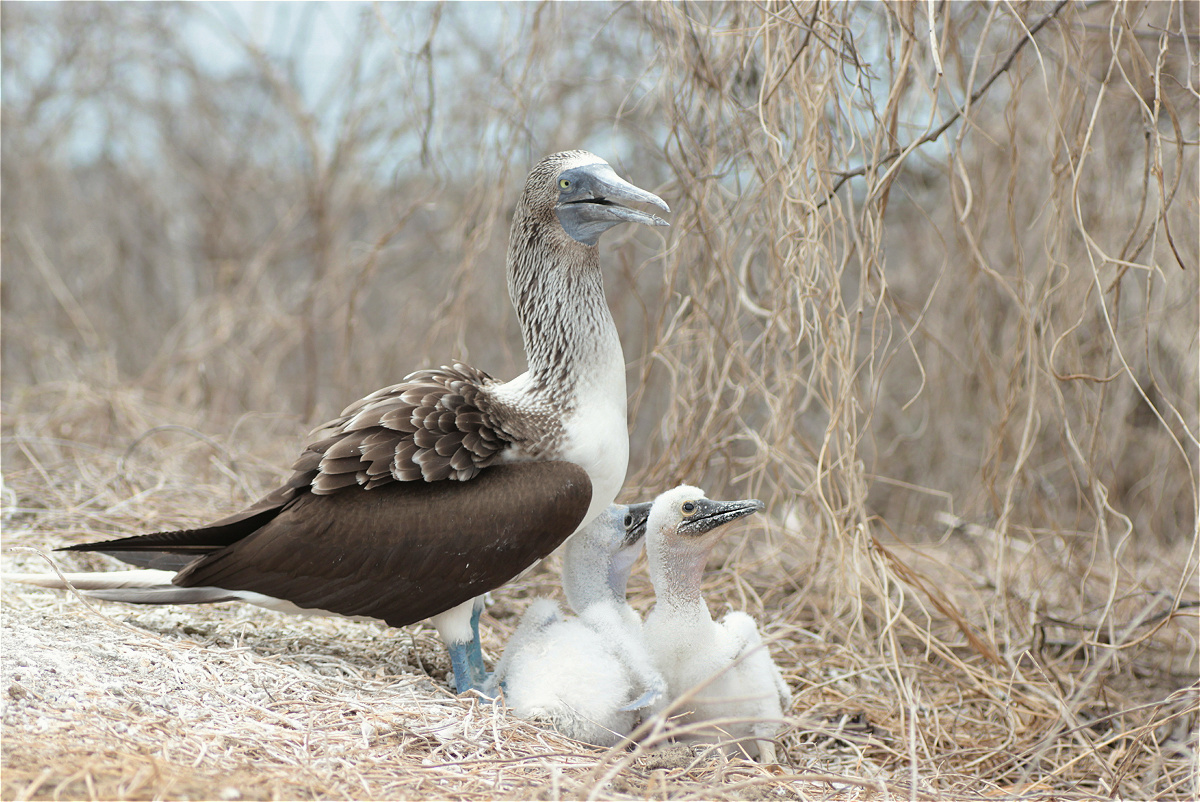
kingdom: Animalia
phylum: Chordata
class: Aves
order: Suliformes
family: Sulidae
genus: Sula
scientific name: Sula nebouxii
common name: Blue-footed booby
